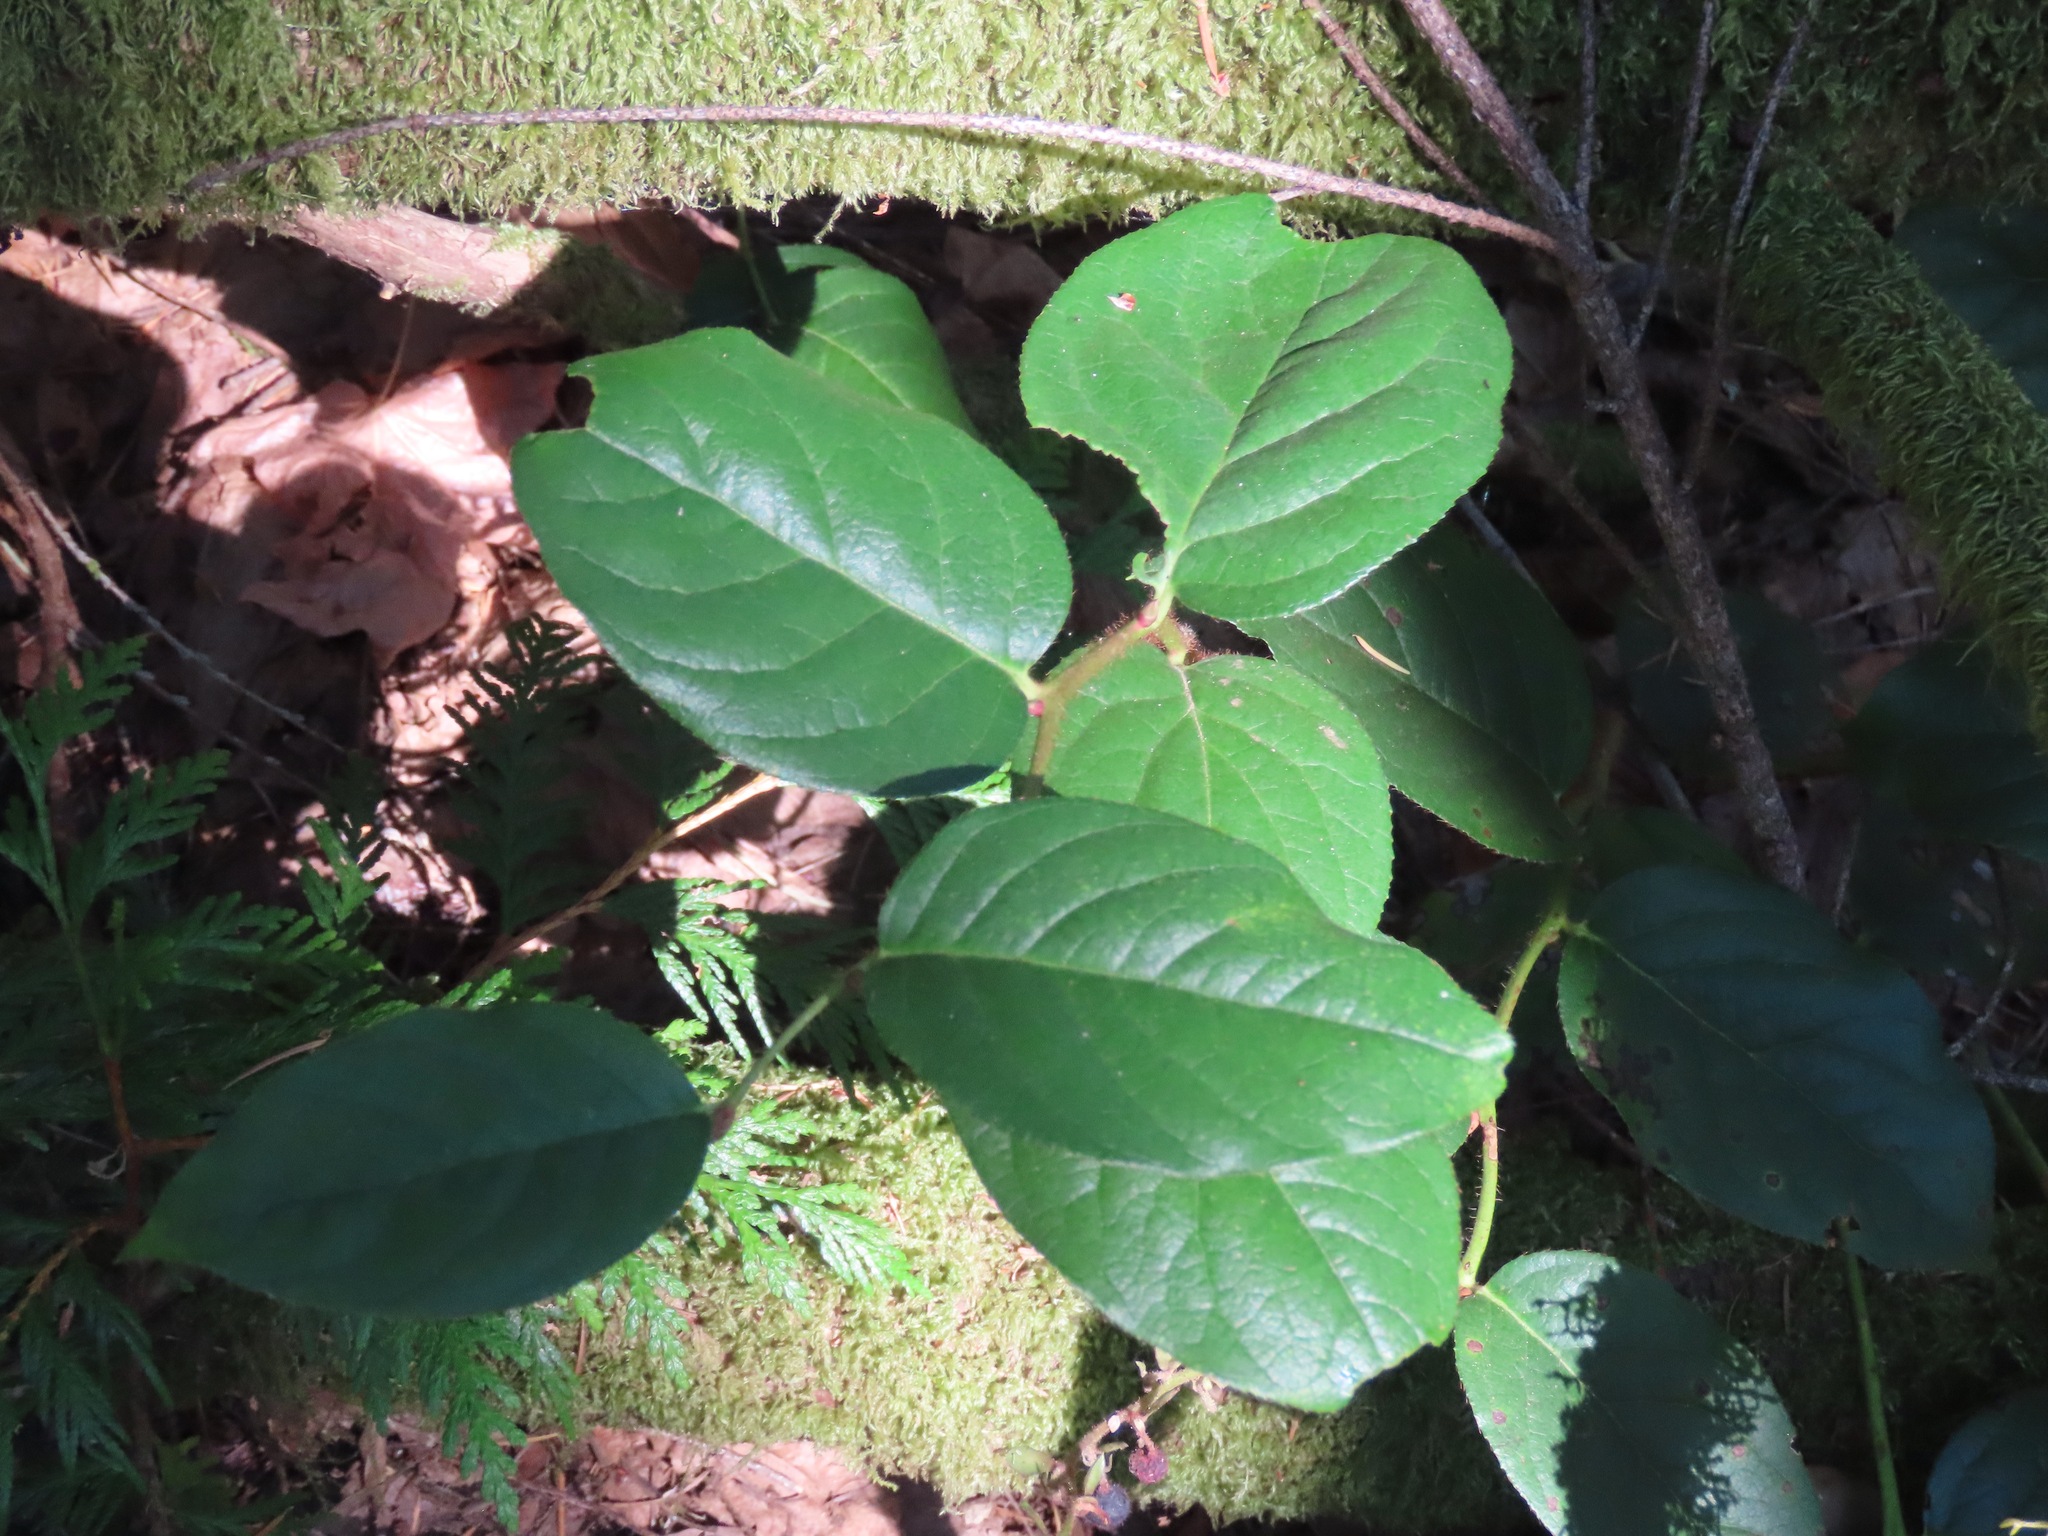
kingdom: Plantae
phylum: Tracheophyta
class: Magnoliopsida
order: Ericales
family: Ericaceae
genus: Gaultheria
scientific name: Gaultheria shallon
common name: Shallon
